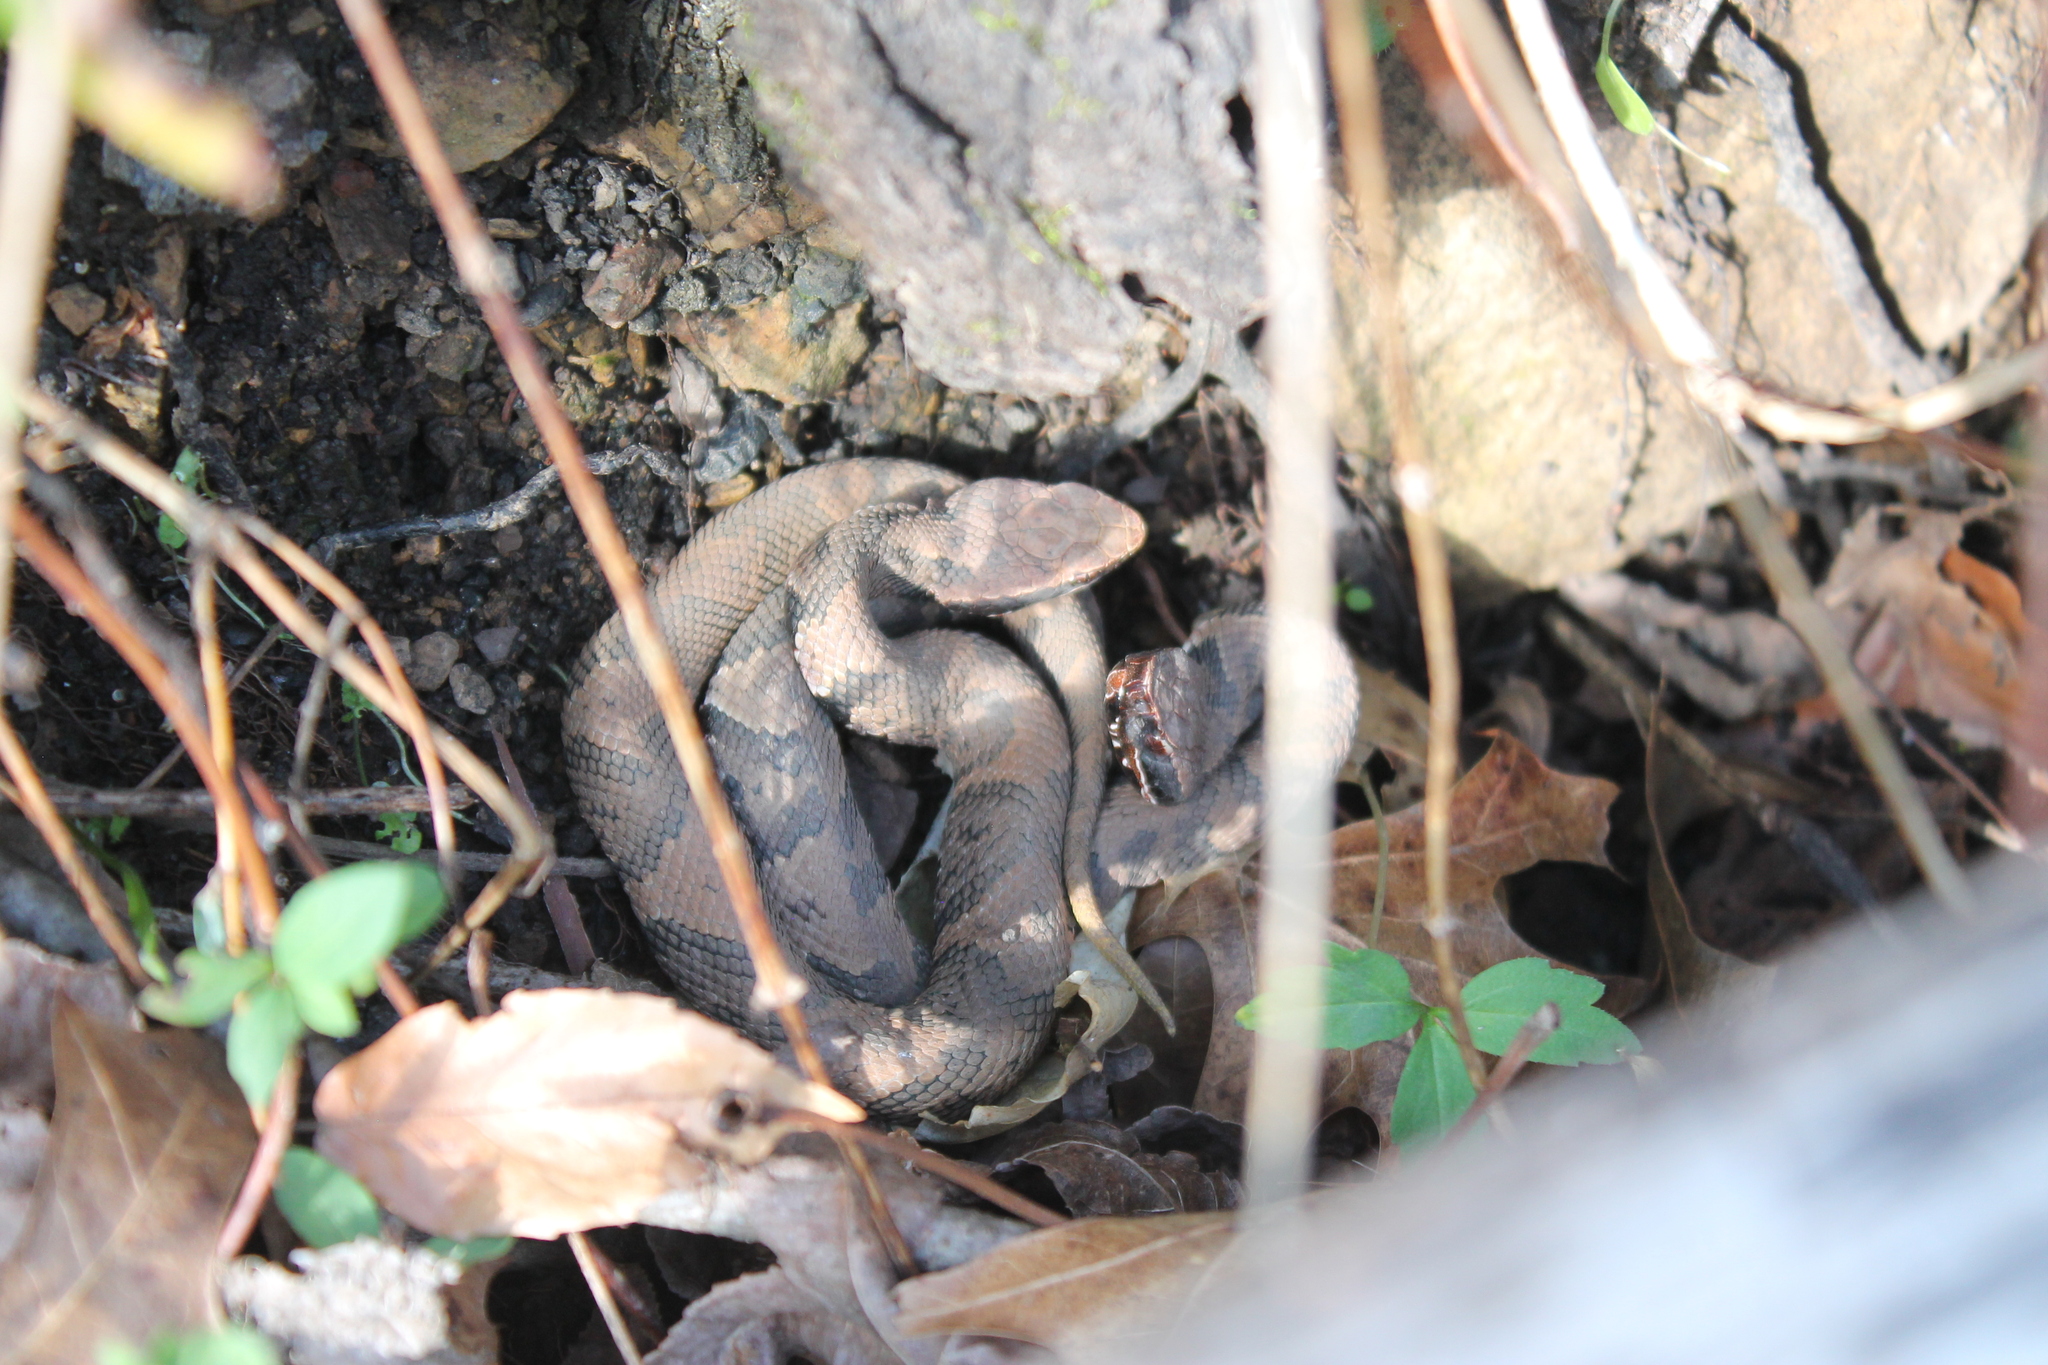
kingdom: Animalia
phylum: Chordata
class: Squamata
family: Viperidae
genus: Agkistrodon
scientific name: Agkistrodon piscivorus
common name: Cottonmouth
